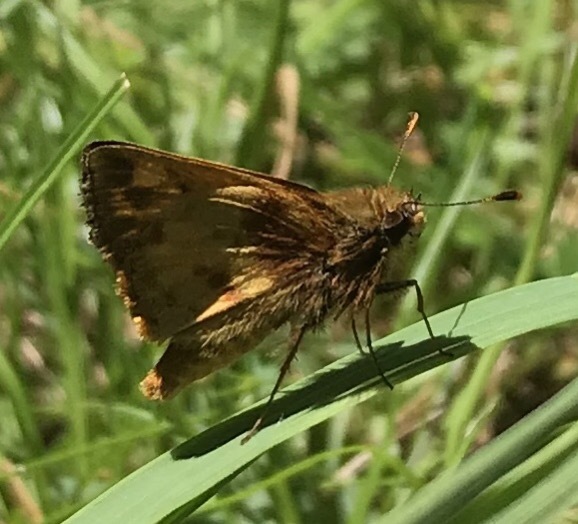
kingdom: Animalia
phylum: Arthropoda
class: Insecta
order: Lepidoptera
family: Hesperiidae
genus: Lon
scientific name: Lon zabulon
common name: Zabulon skipper
